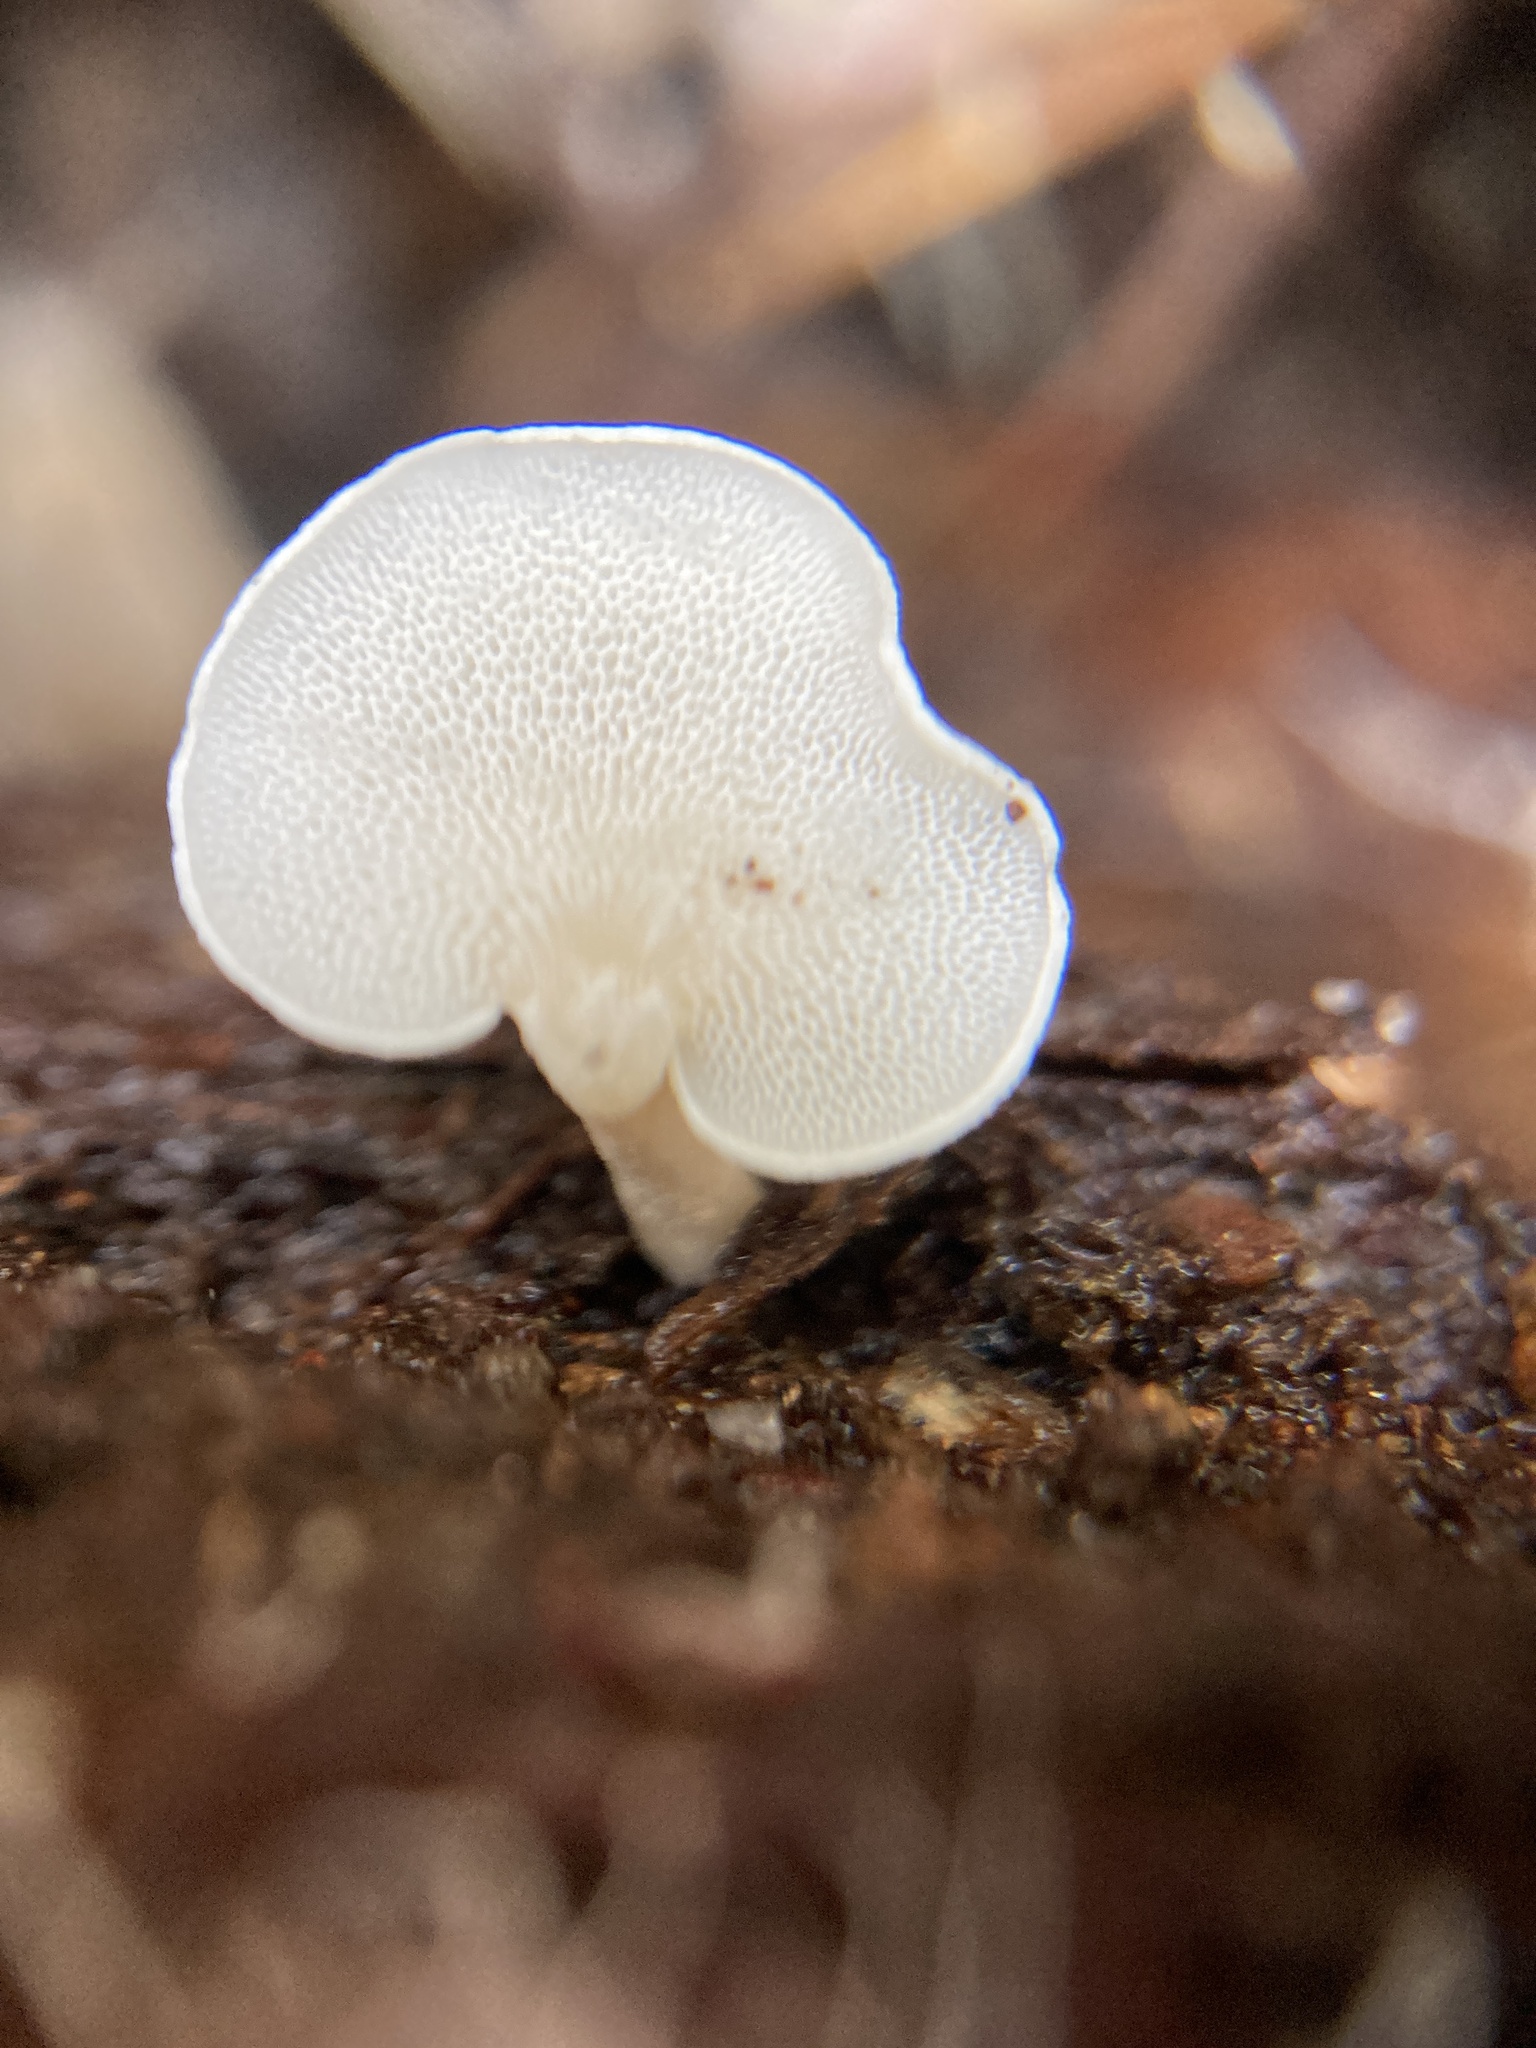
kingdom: Fungi
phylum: Basidiomycota
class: Agaricomycetes
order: Agaricales
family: Mycenaceae
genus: Panellus
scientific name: Panellus pusillus
